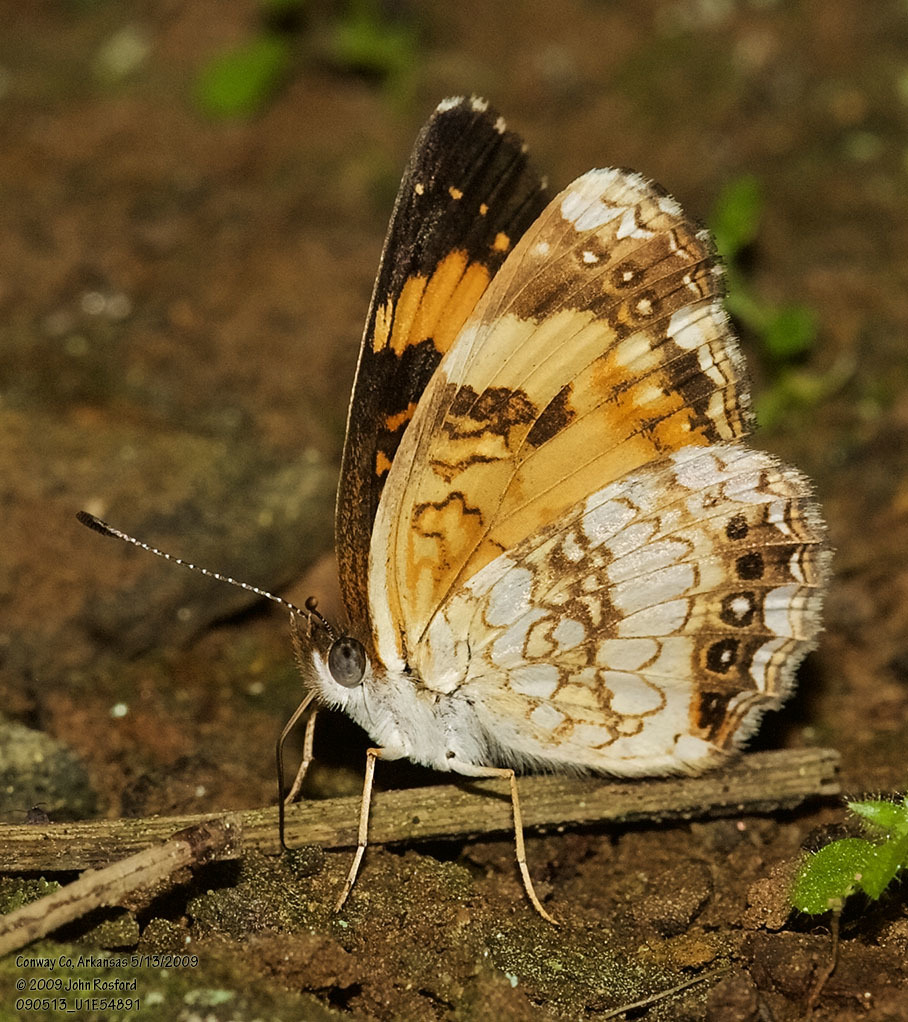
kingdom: Animalia
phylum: Arthropoda
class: Insecta
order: Lepidoptera
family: Nymphalidae
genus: Chlosyne
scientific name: Chlosyne nycteis
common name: Silvery checkerspot
